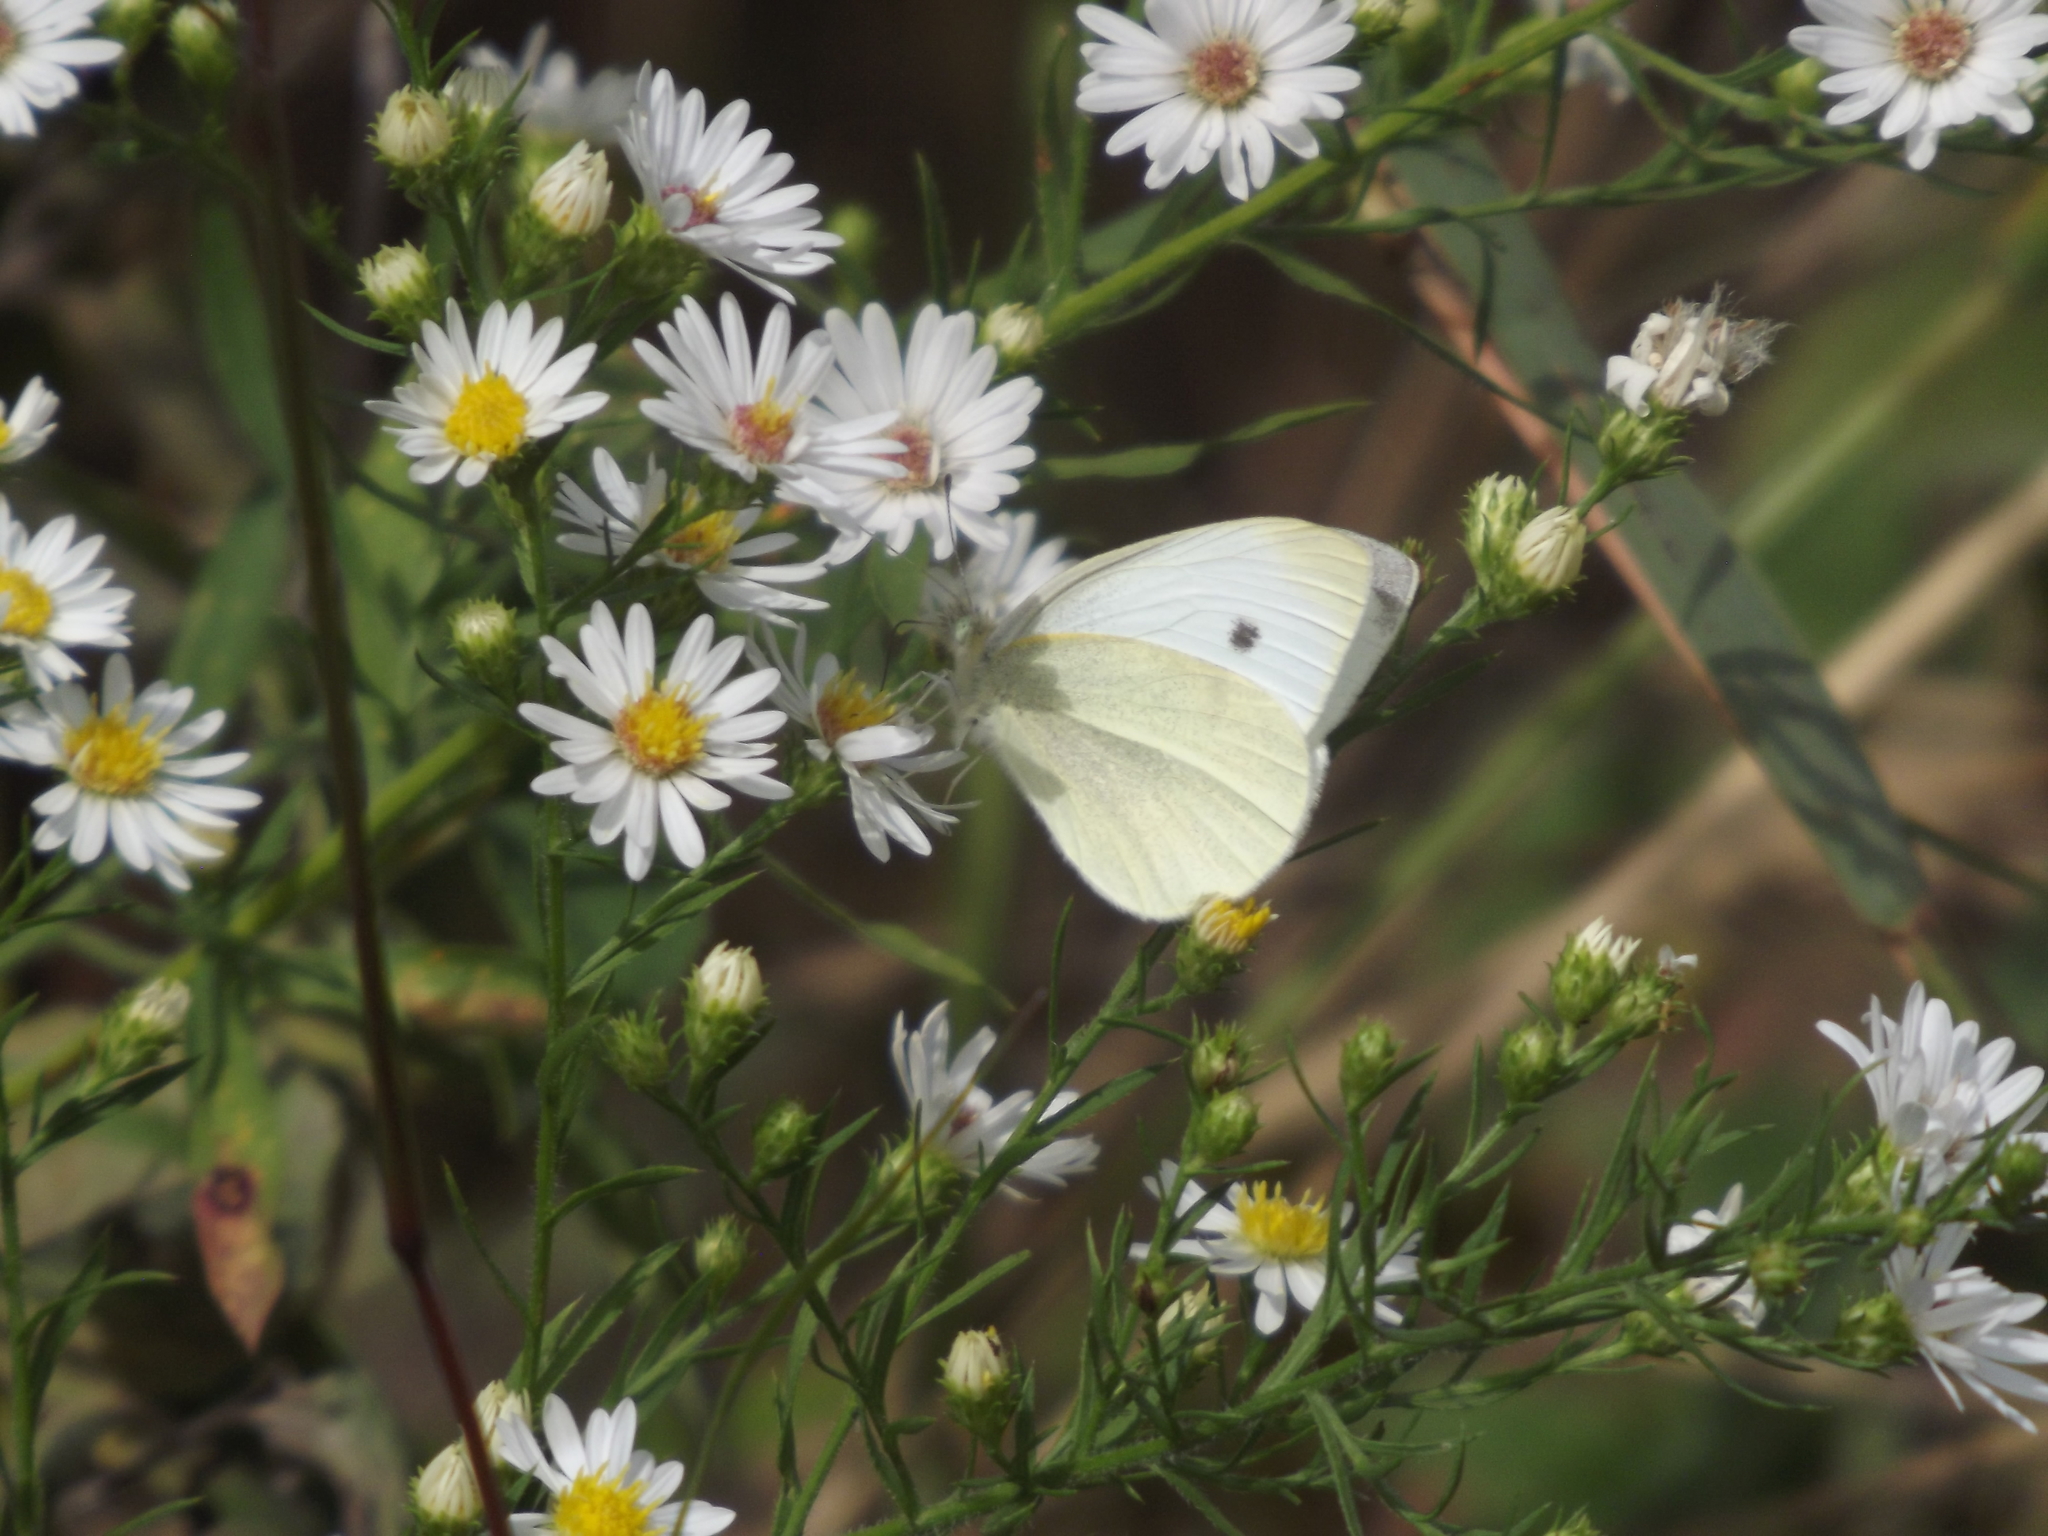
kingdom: Animalia
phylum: Arthropoda
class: Insecta
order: Lepidoptera
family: Pieridae
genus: Pieris
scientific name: Pieris rapae
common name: Small white
